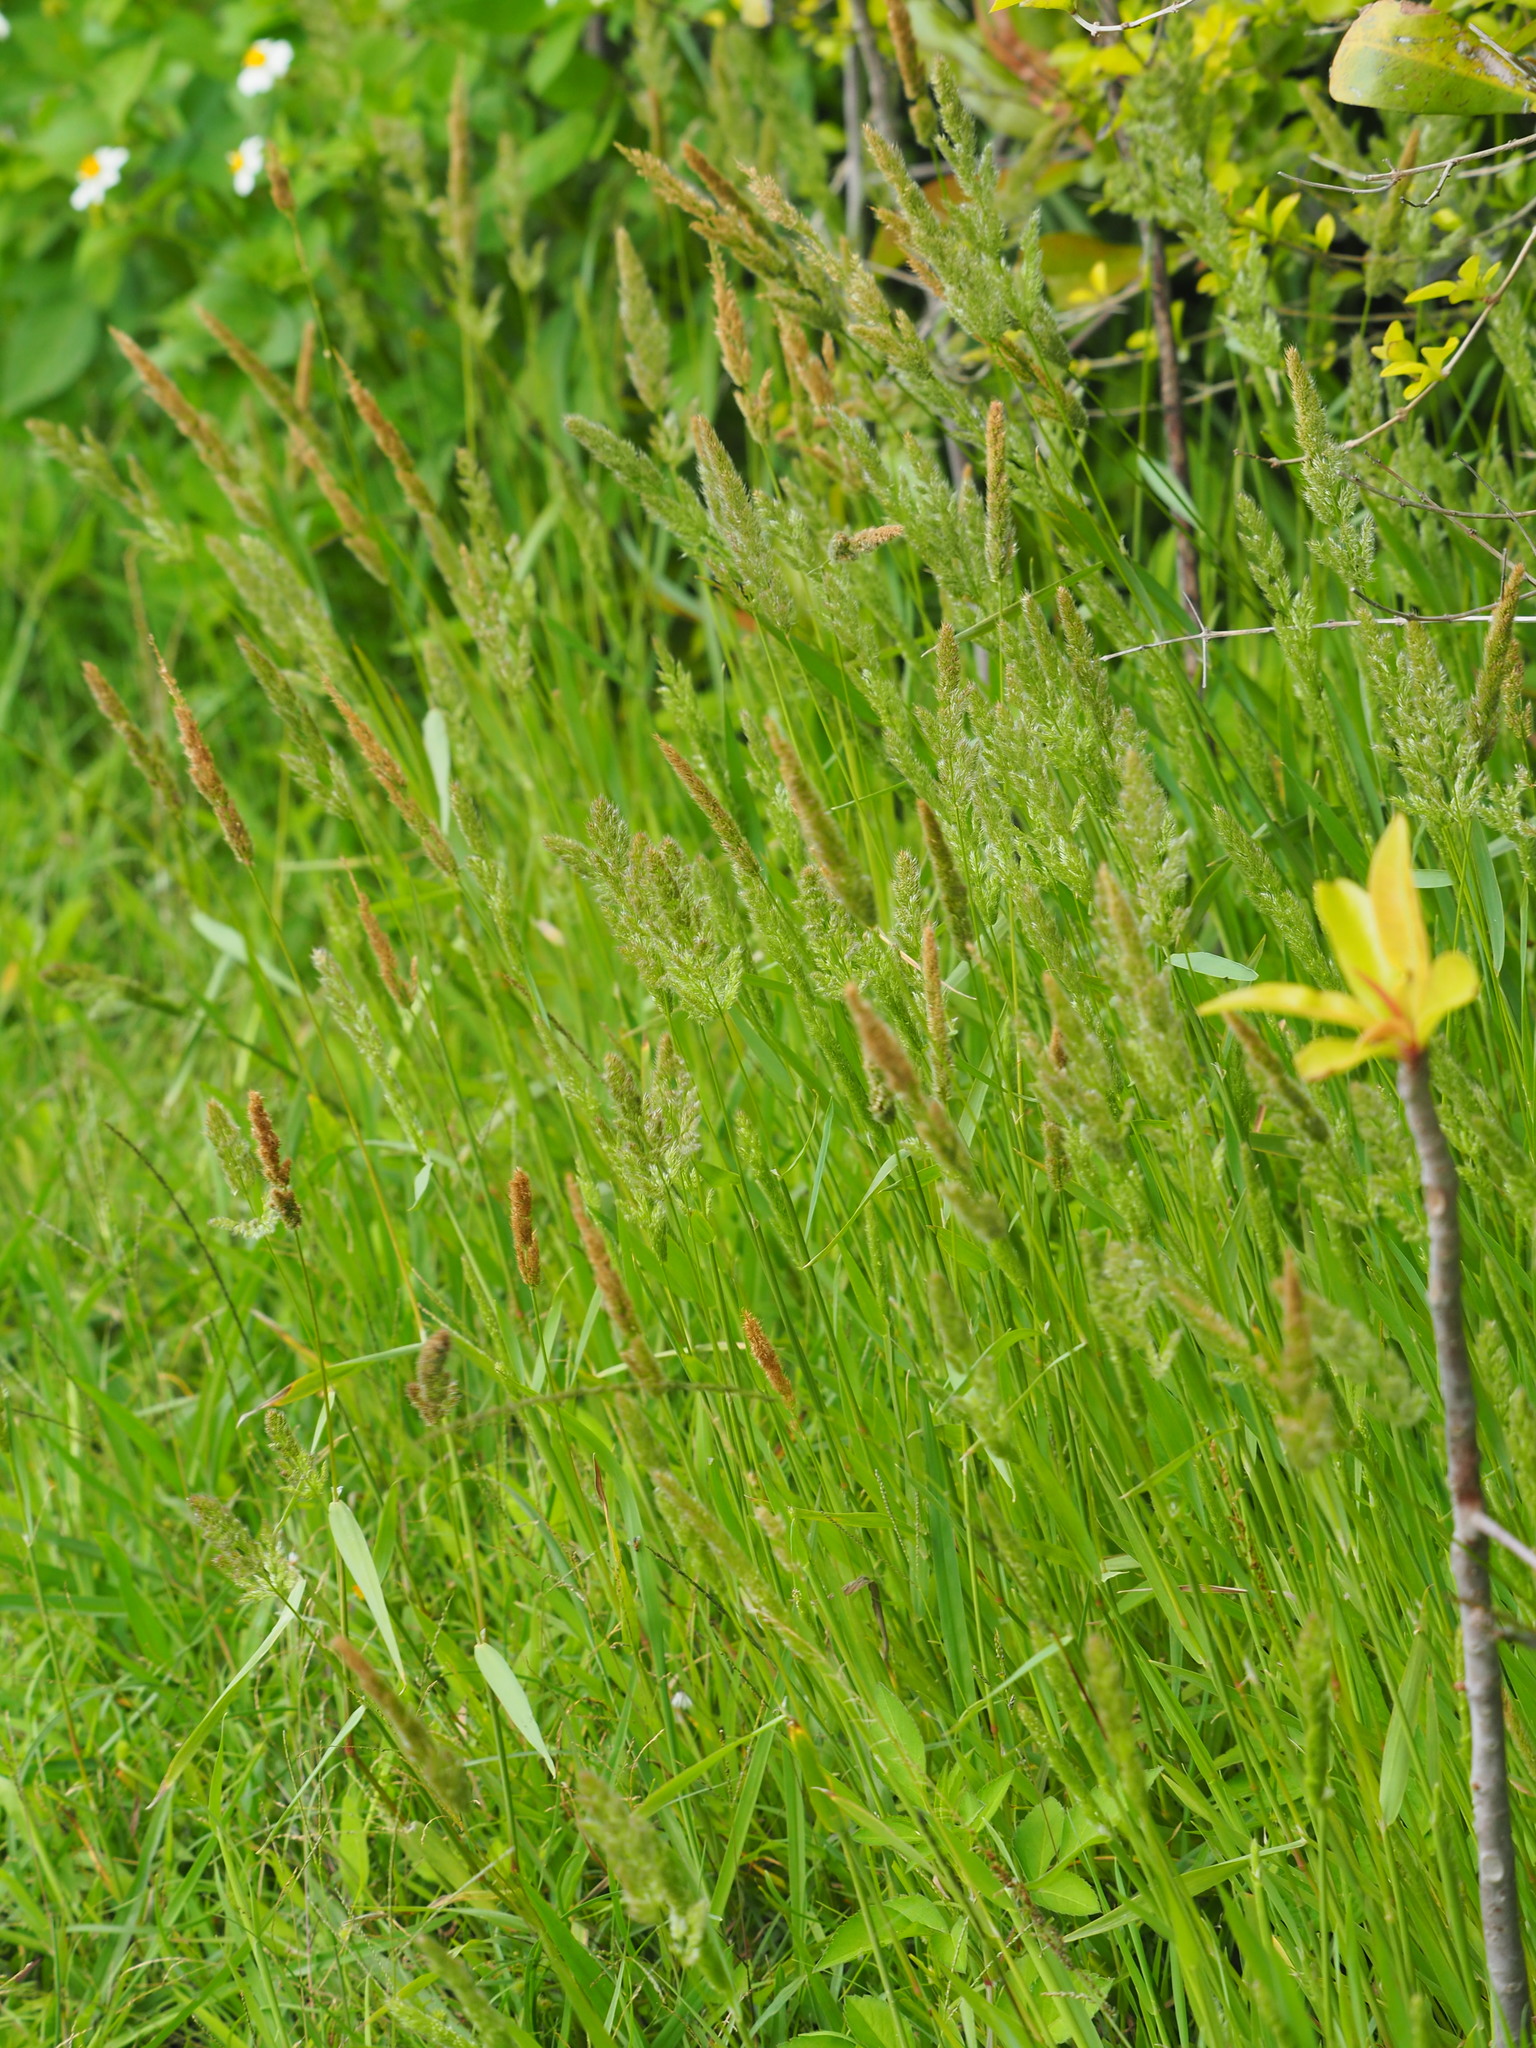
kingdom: Plantae
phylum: Tracheophyta
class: Liliopsida
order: Poales
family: Poaceae
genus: Polypogon
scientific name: Polypogon fugax
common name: Asia minor bluegrass
